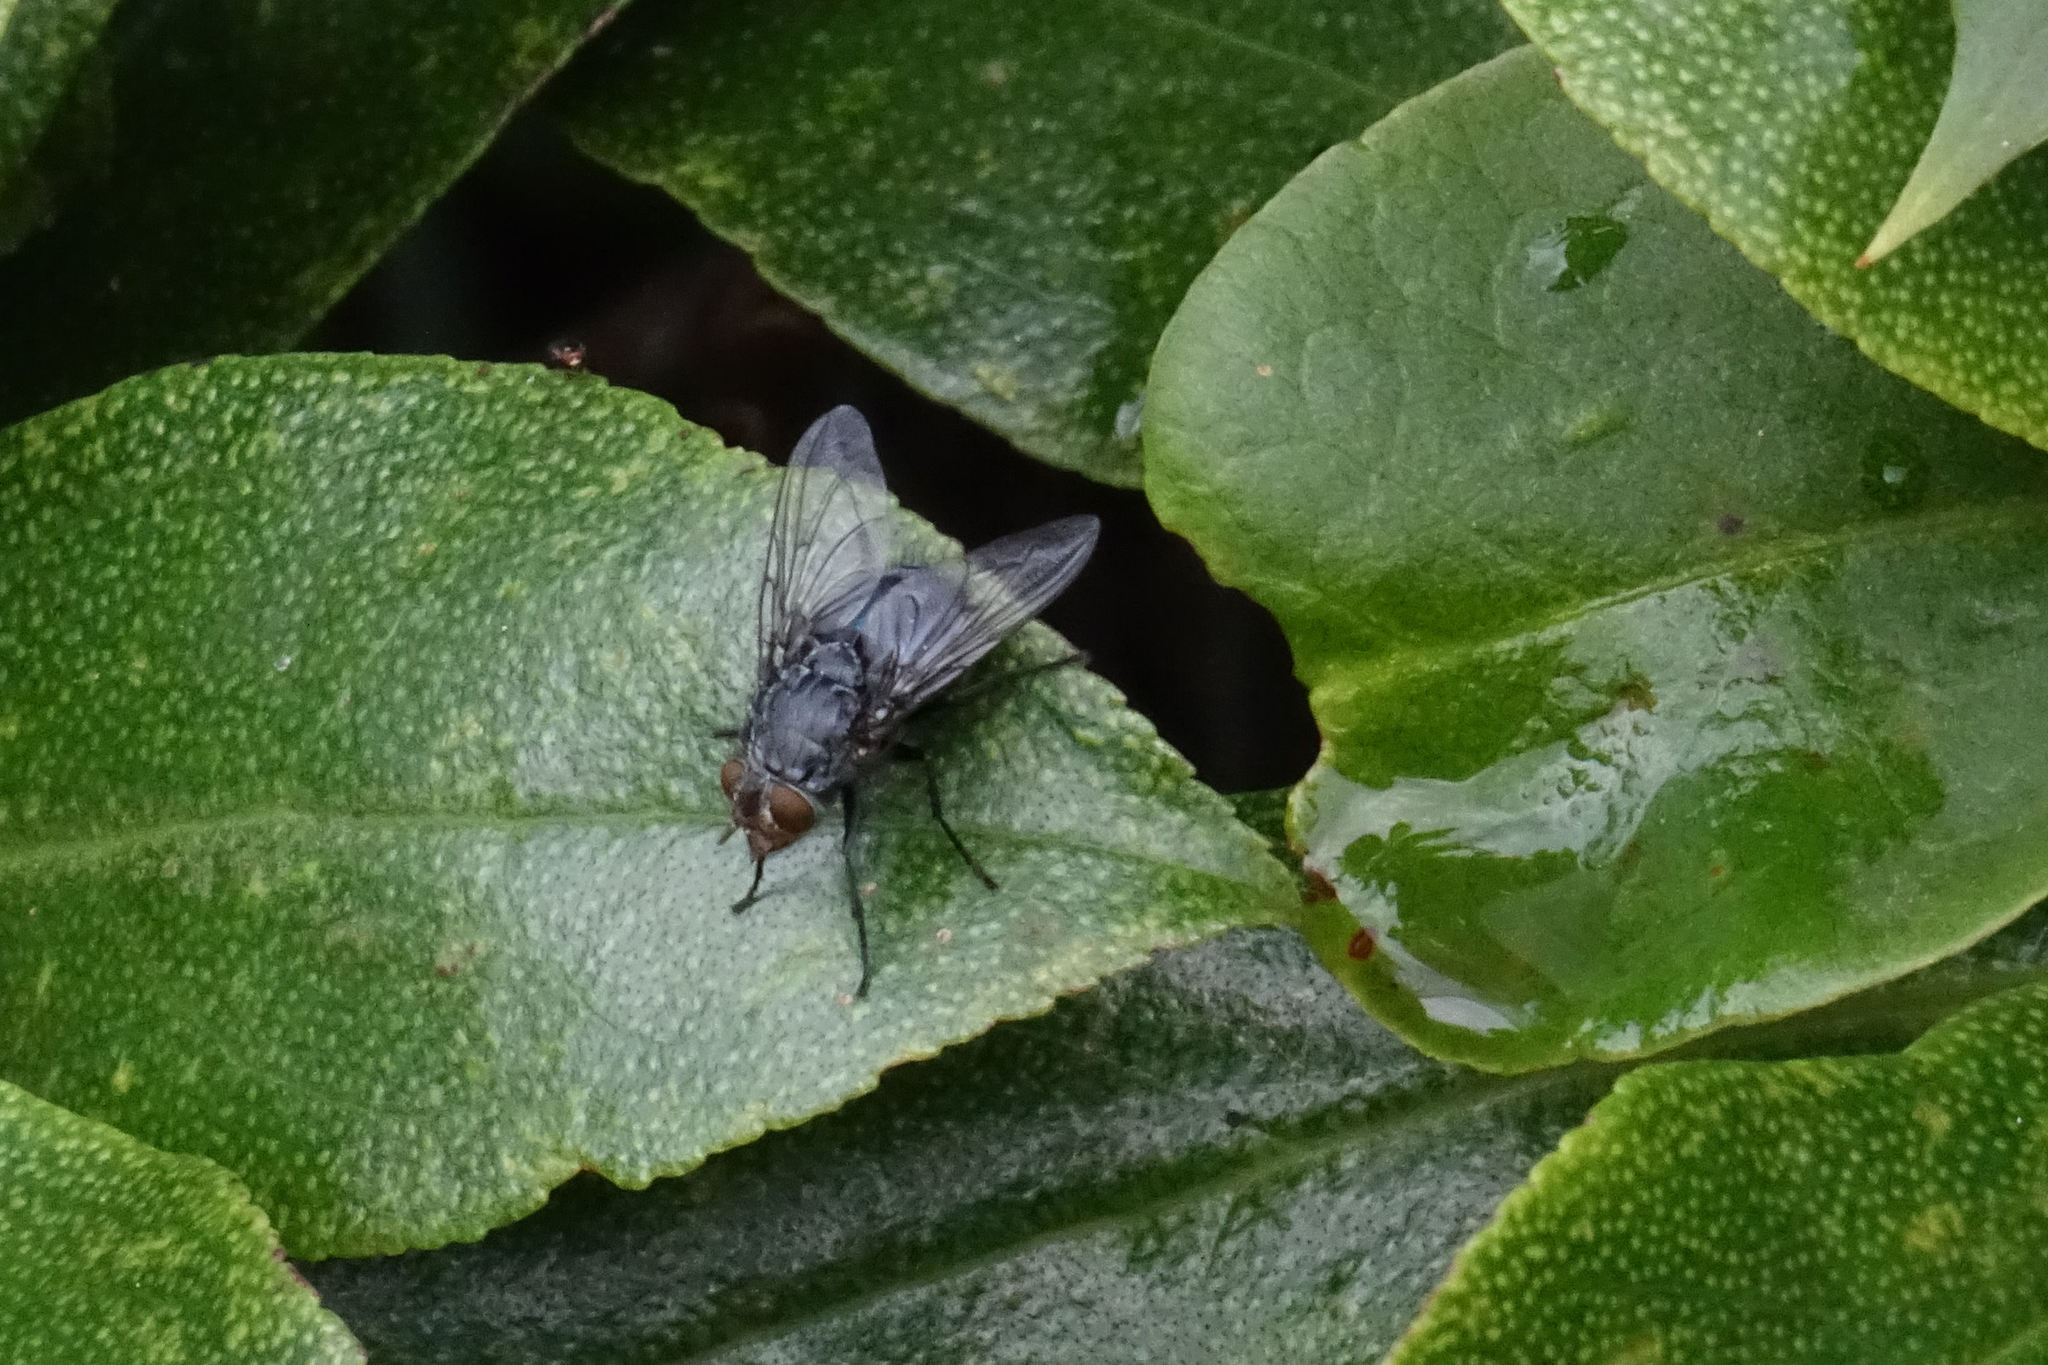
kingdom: Animalia
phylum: Arthropoda
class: Insecta
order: Diptera
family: Calliphoridae
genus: Calliphora
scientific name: Calliphora vicina
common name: Common blow flie
